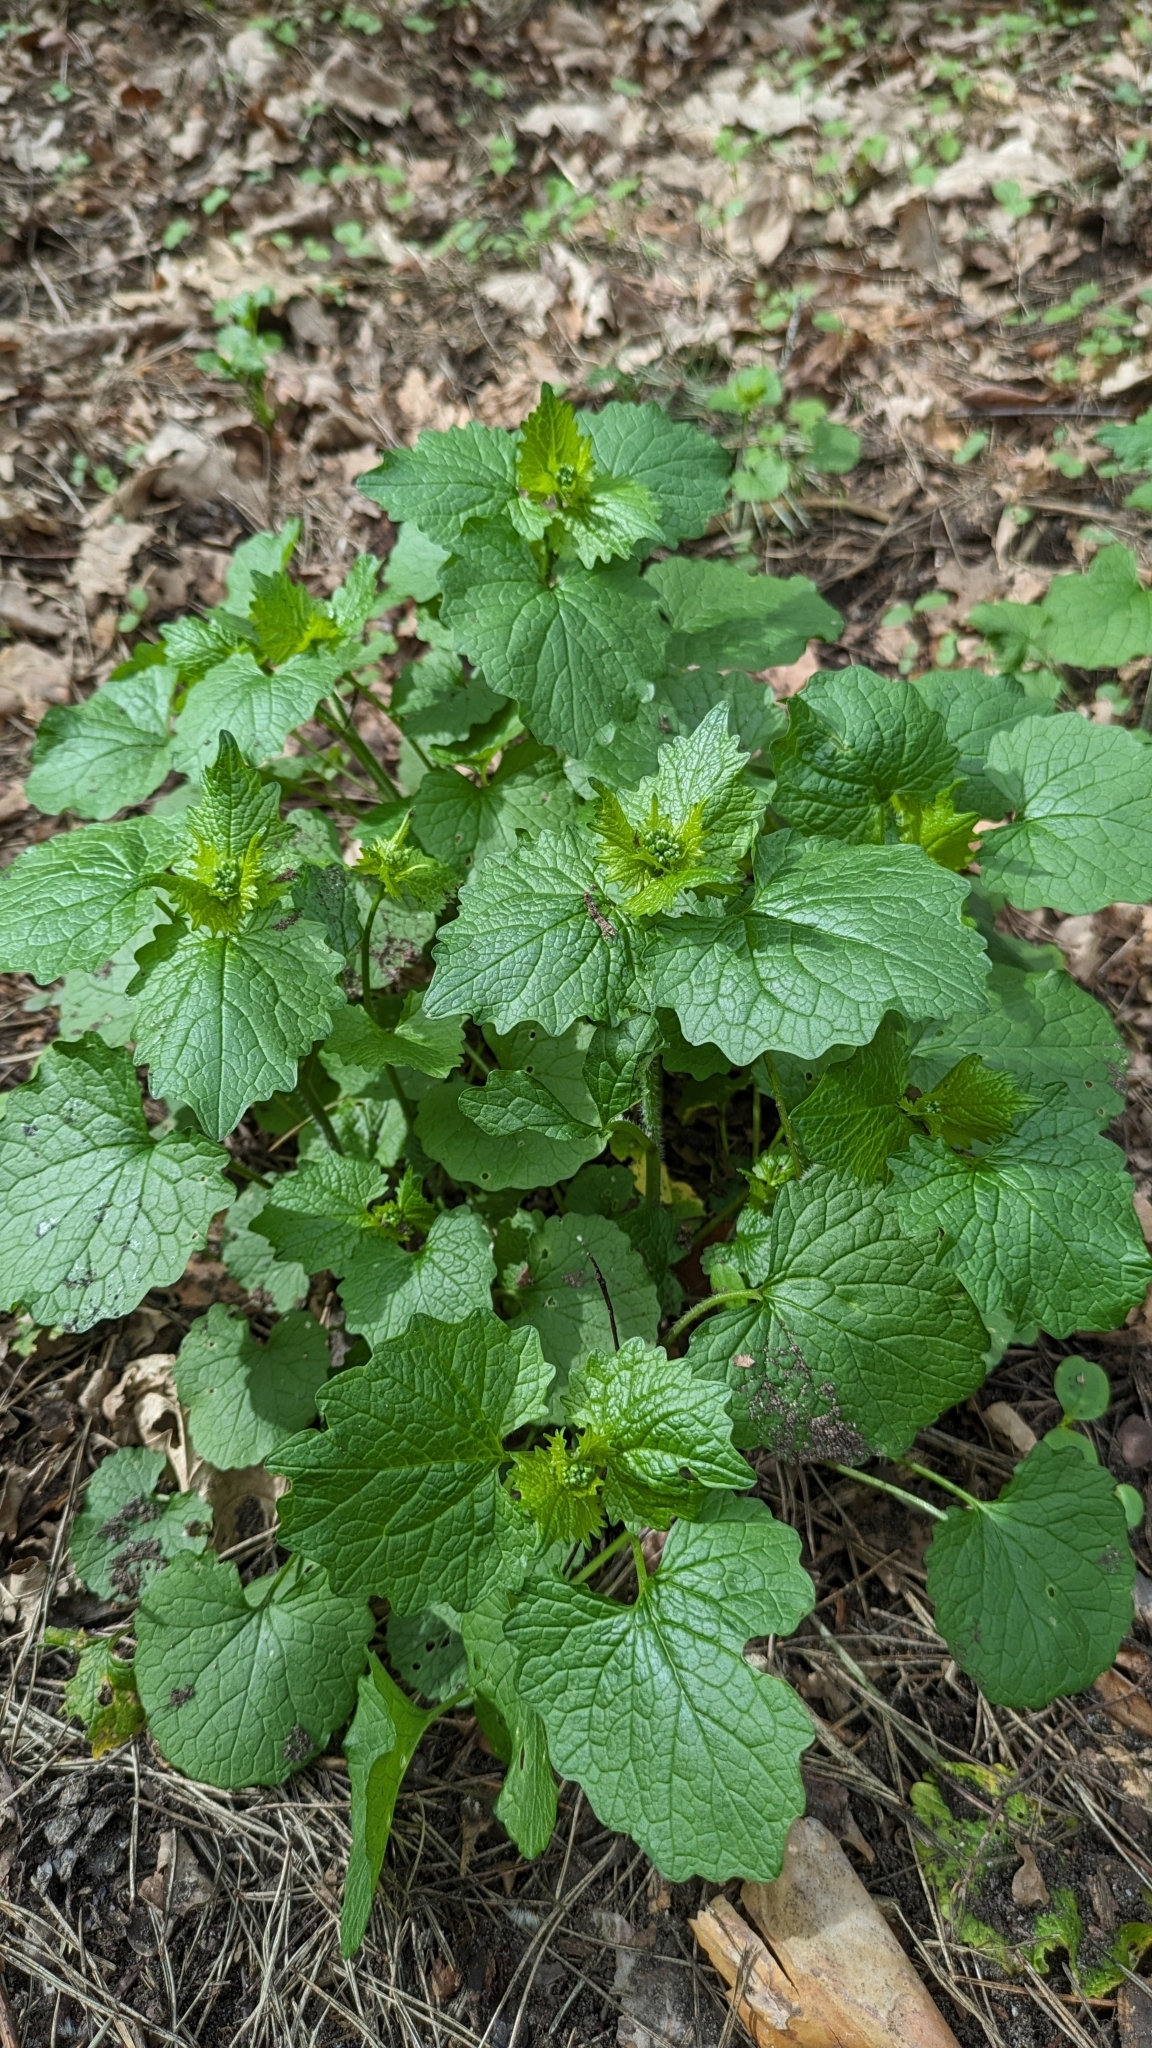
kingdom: Plantae
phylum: Tracheophyta
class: Magnoliopsida
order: Brassicales
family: Brassicaceae
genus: Alliaria
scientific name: Alliaria petiolata
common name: Garlic mustard
